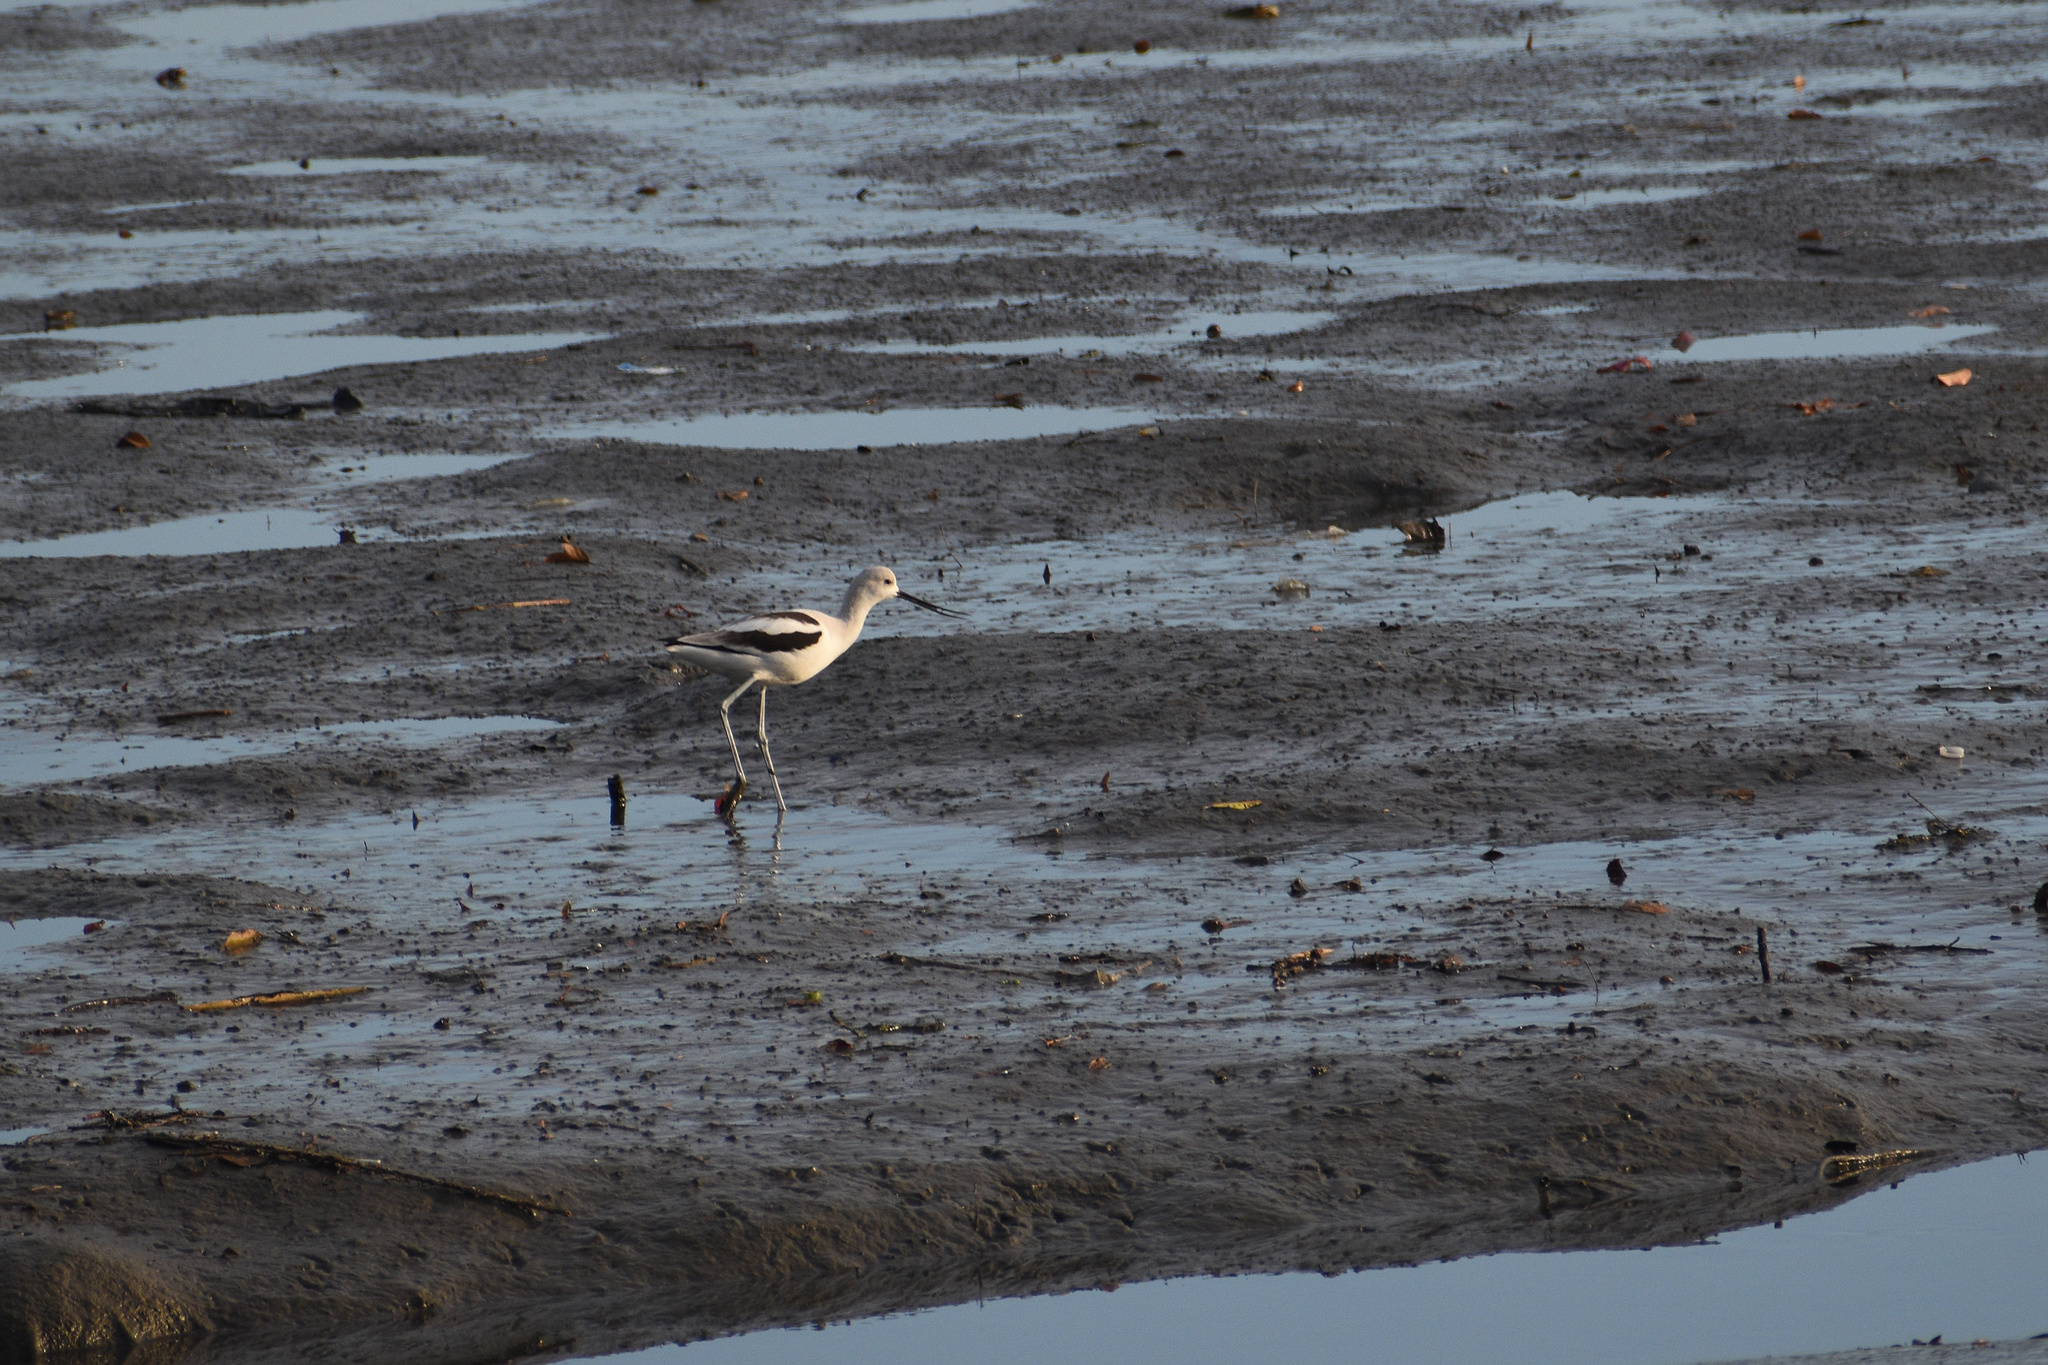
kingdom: Animalia
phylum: Chordata
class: Aves
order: Charadriiformes
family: Recurvirostridae
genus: Recurvirostra
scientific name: Recurvirostra americana
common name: American avocet
